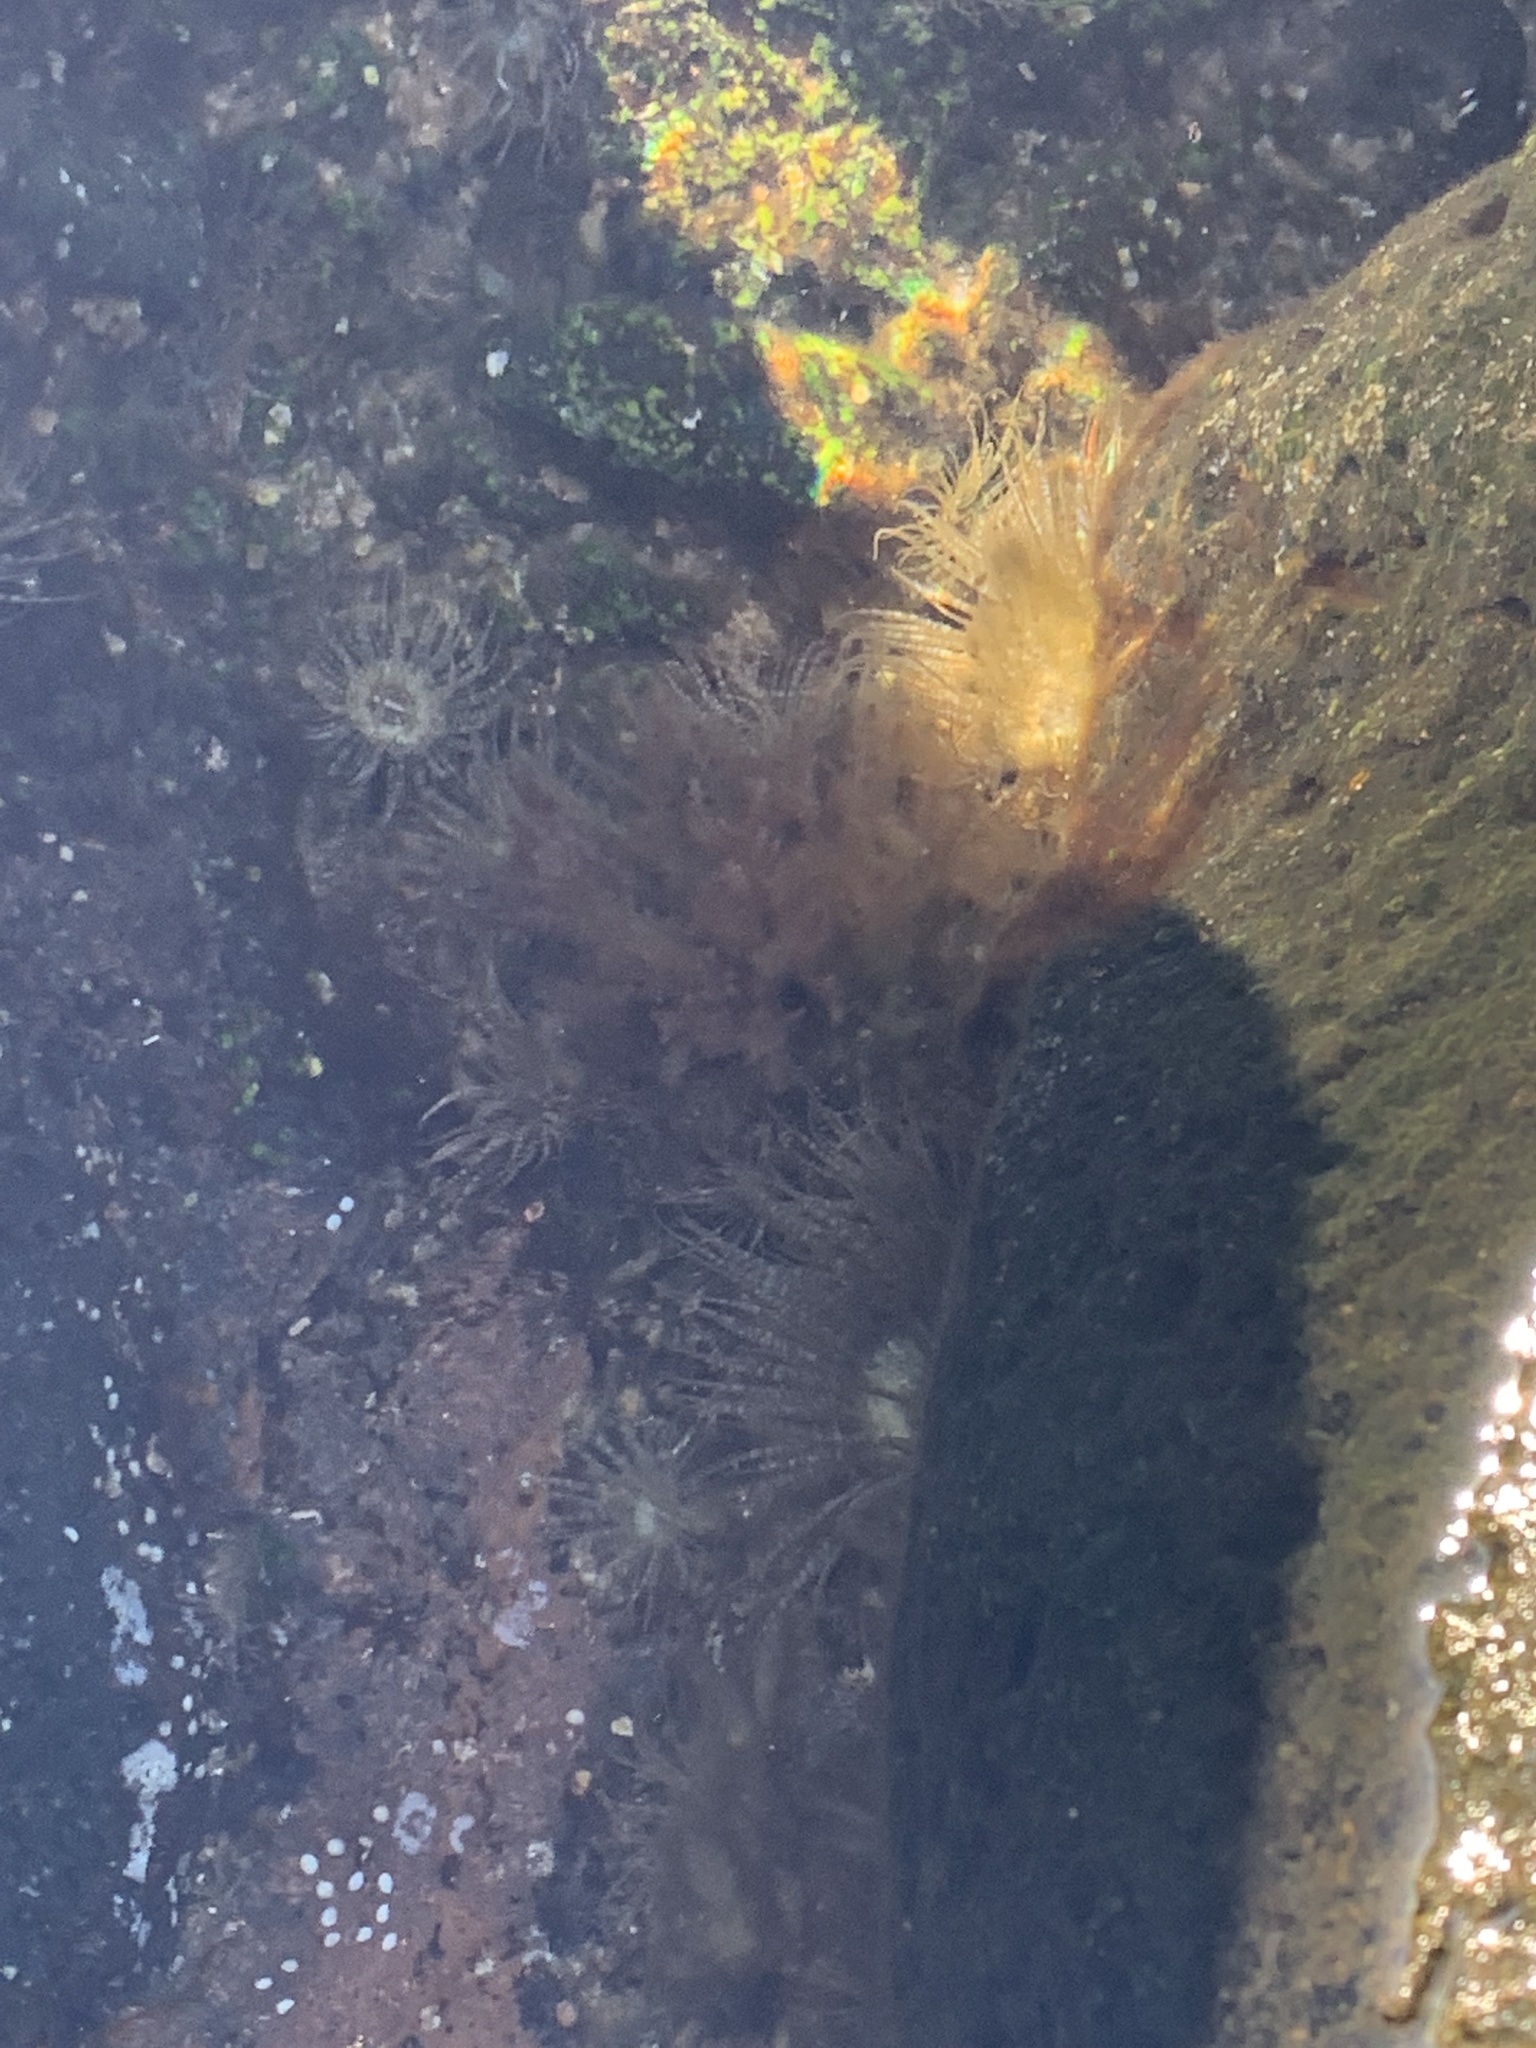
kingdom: Animalia
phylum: Cnidaria
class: Anthozoa
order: Actiniaria
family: Aiptasiidae
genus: Exaiptasia
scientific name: Exaiptasia diaphana
